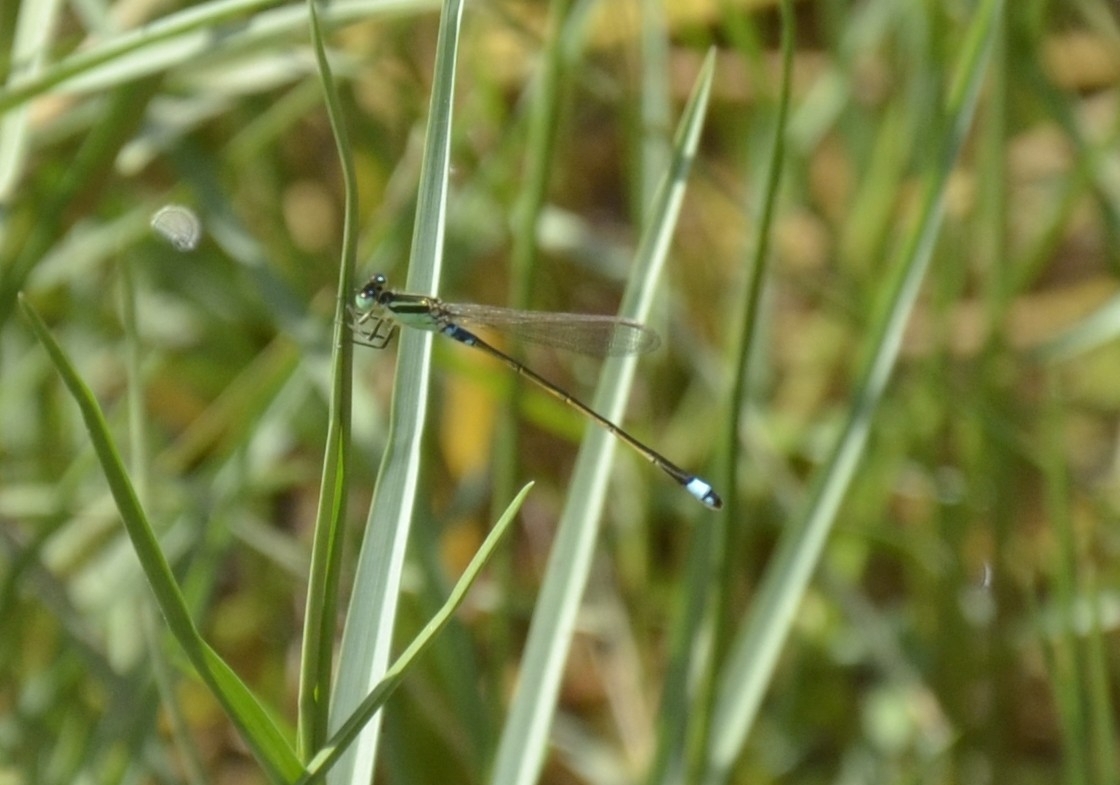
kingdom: Animalia
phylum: Arthropoda
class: Insecta
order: Odonata
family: Coenagrionidae
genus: Ischnura
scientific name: Ischnura senegalensis
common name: Tropical bluetail
